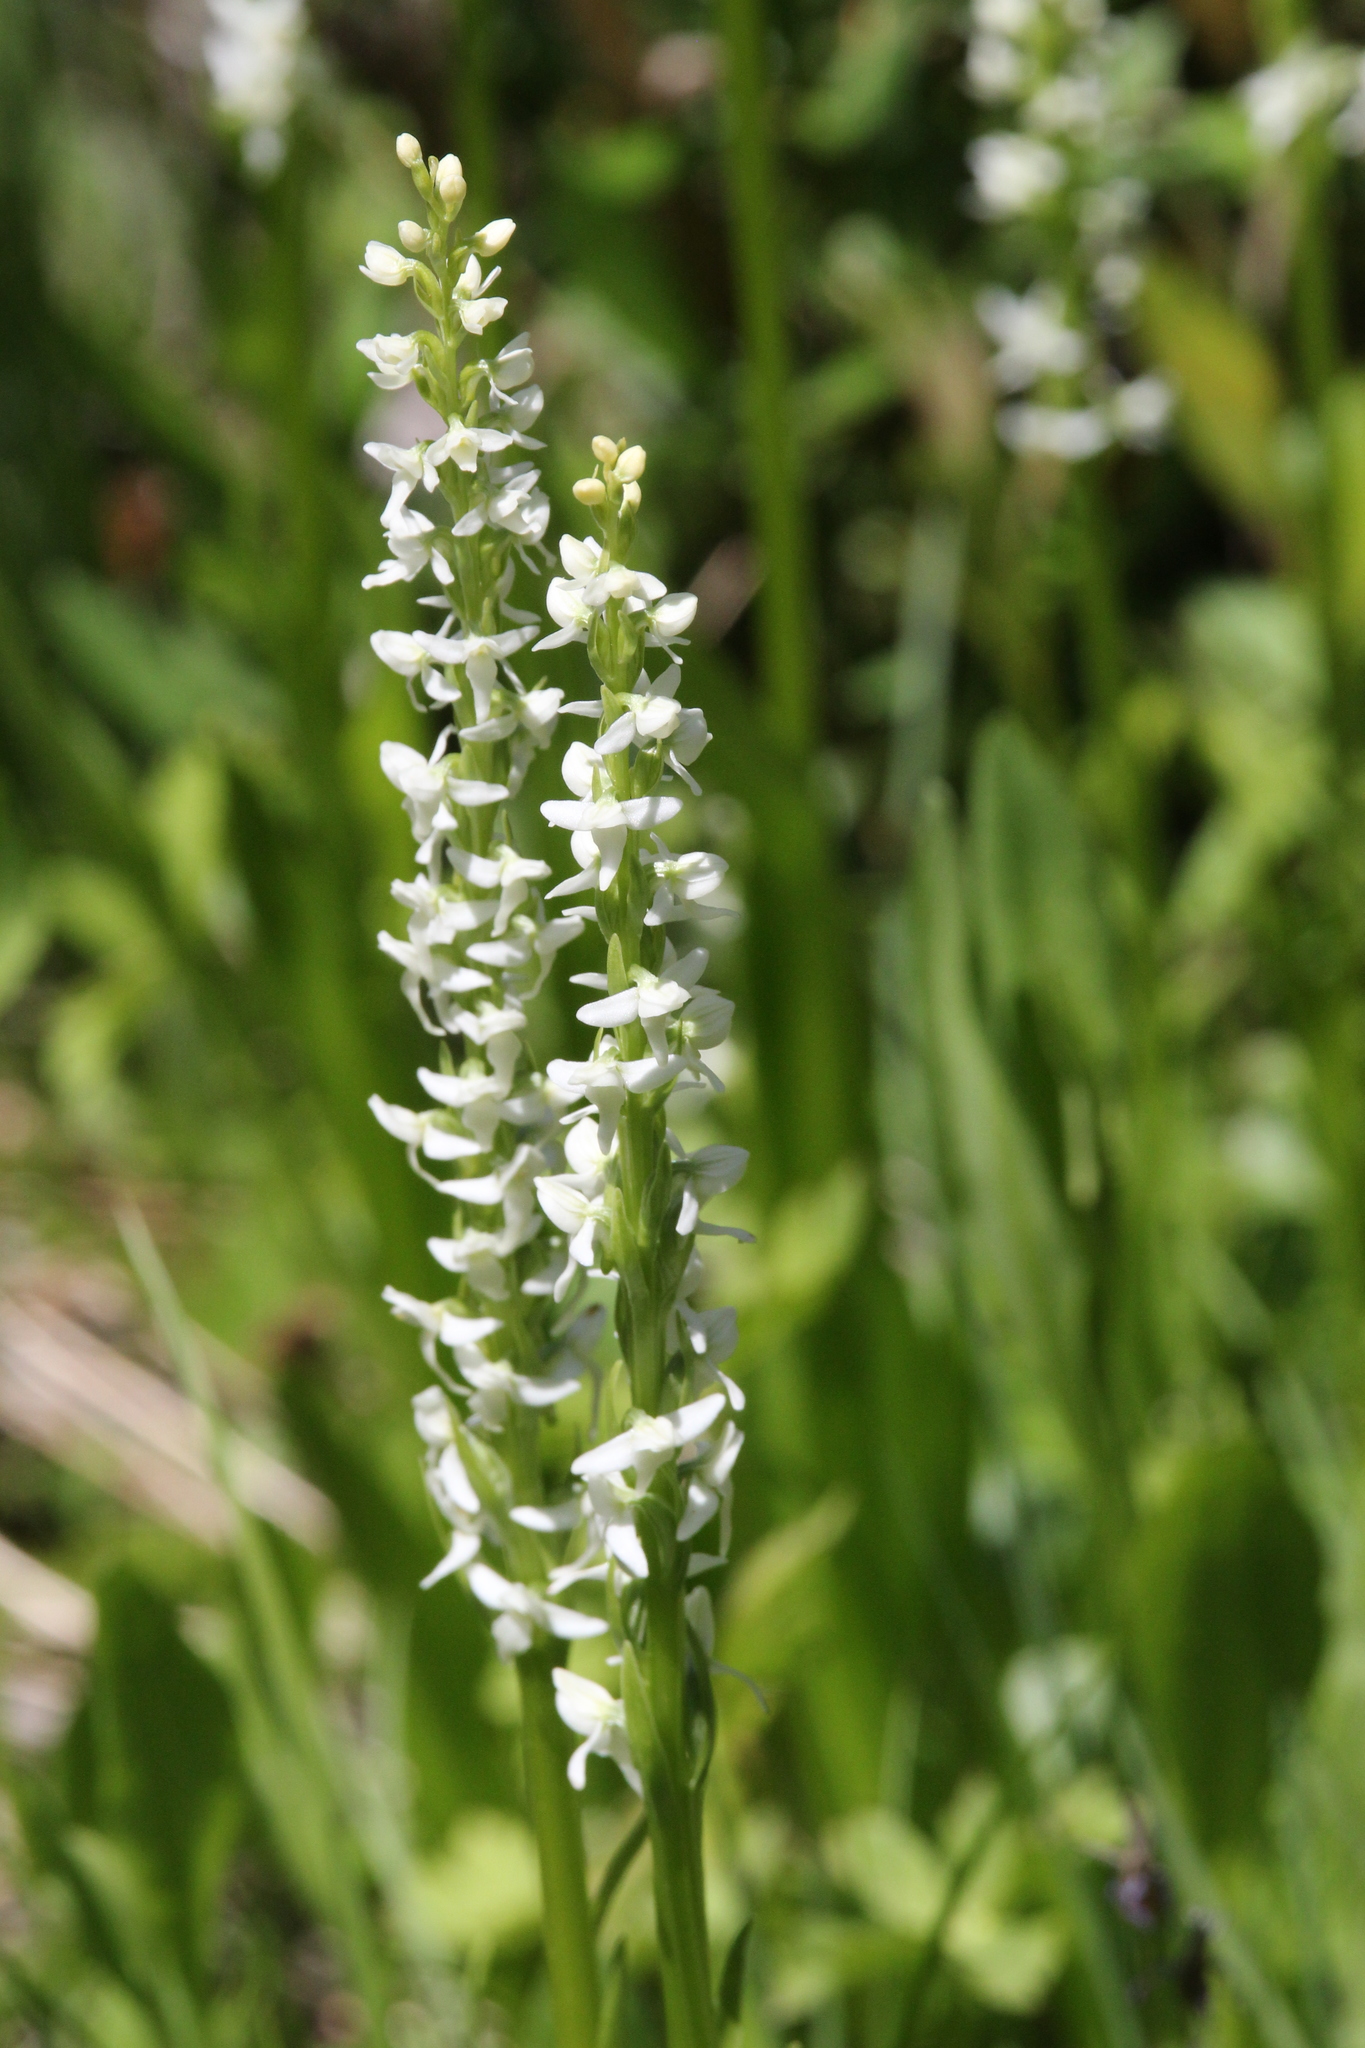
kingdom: Plantae
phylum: Tracheophyta
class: Liliopsida
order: Asparagales
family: Orchidaceae
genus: Platanthera
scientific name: Platanthera dilatata
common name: Bog candles
